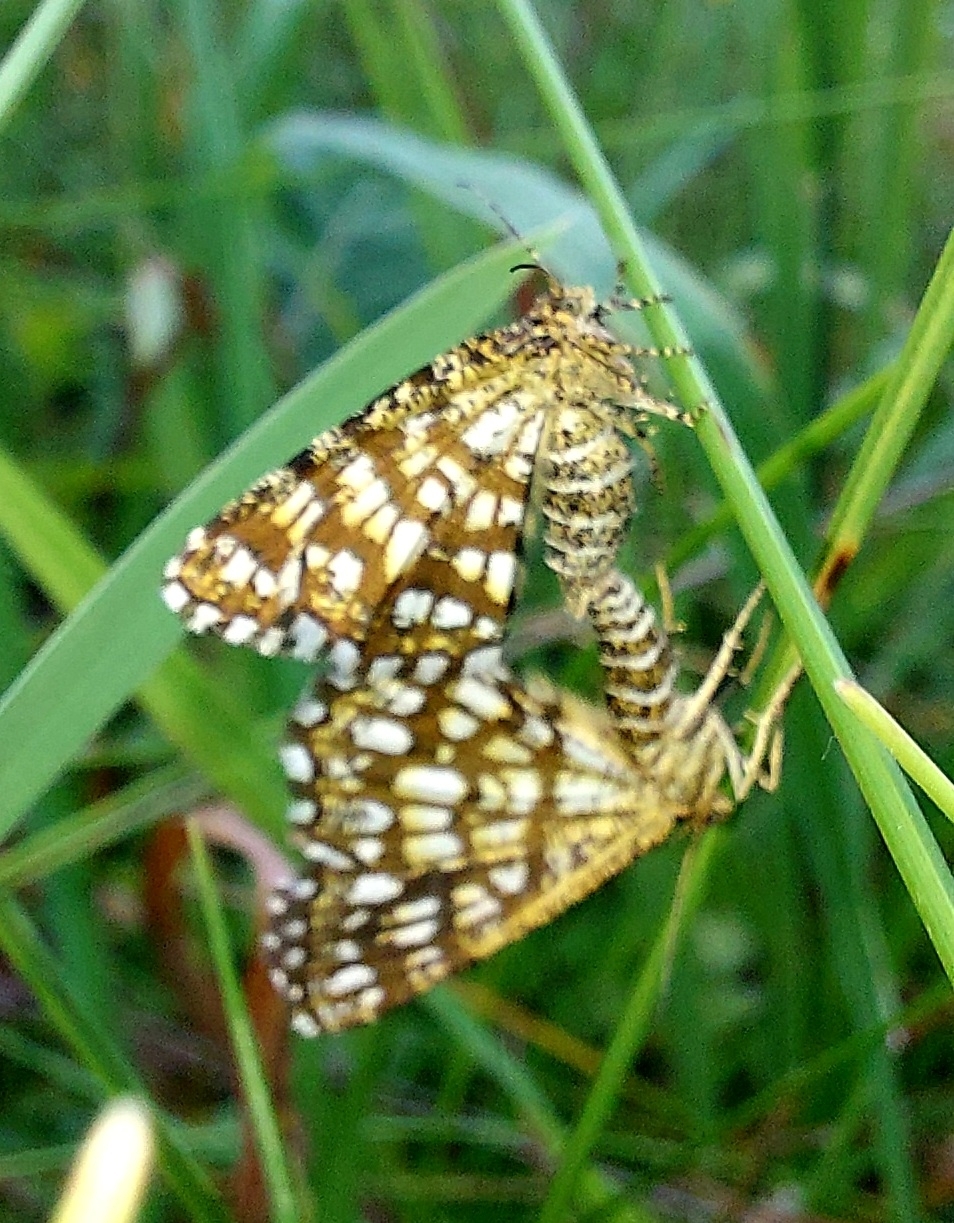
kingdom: Animalia
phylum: Arthropoda
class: Insecta
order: Lepidoptera
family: Geometridae
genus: Chiasmia
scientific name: Chiasmia clathrata
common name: Latticed heath
